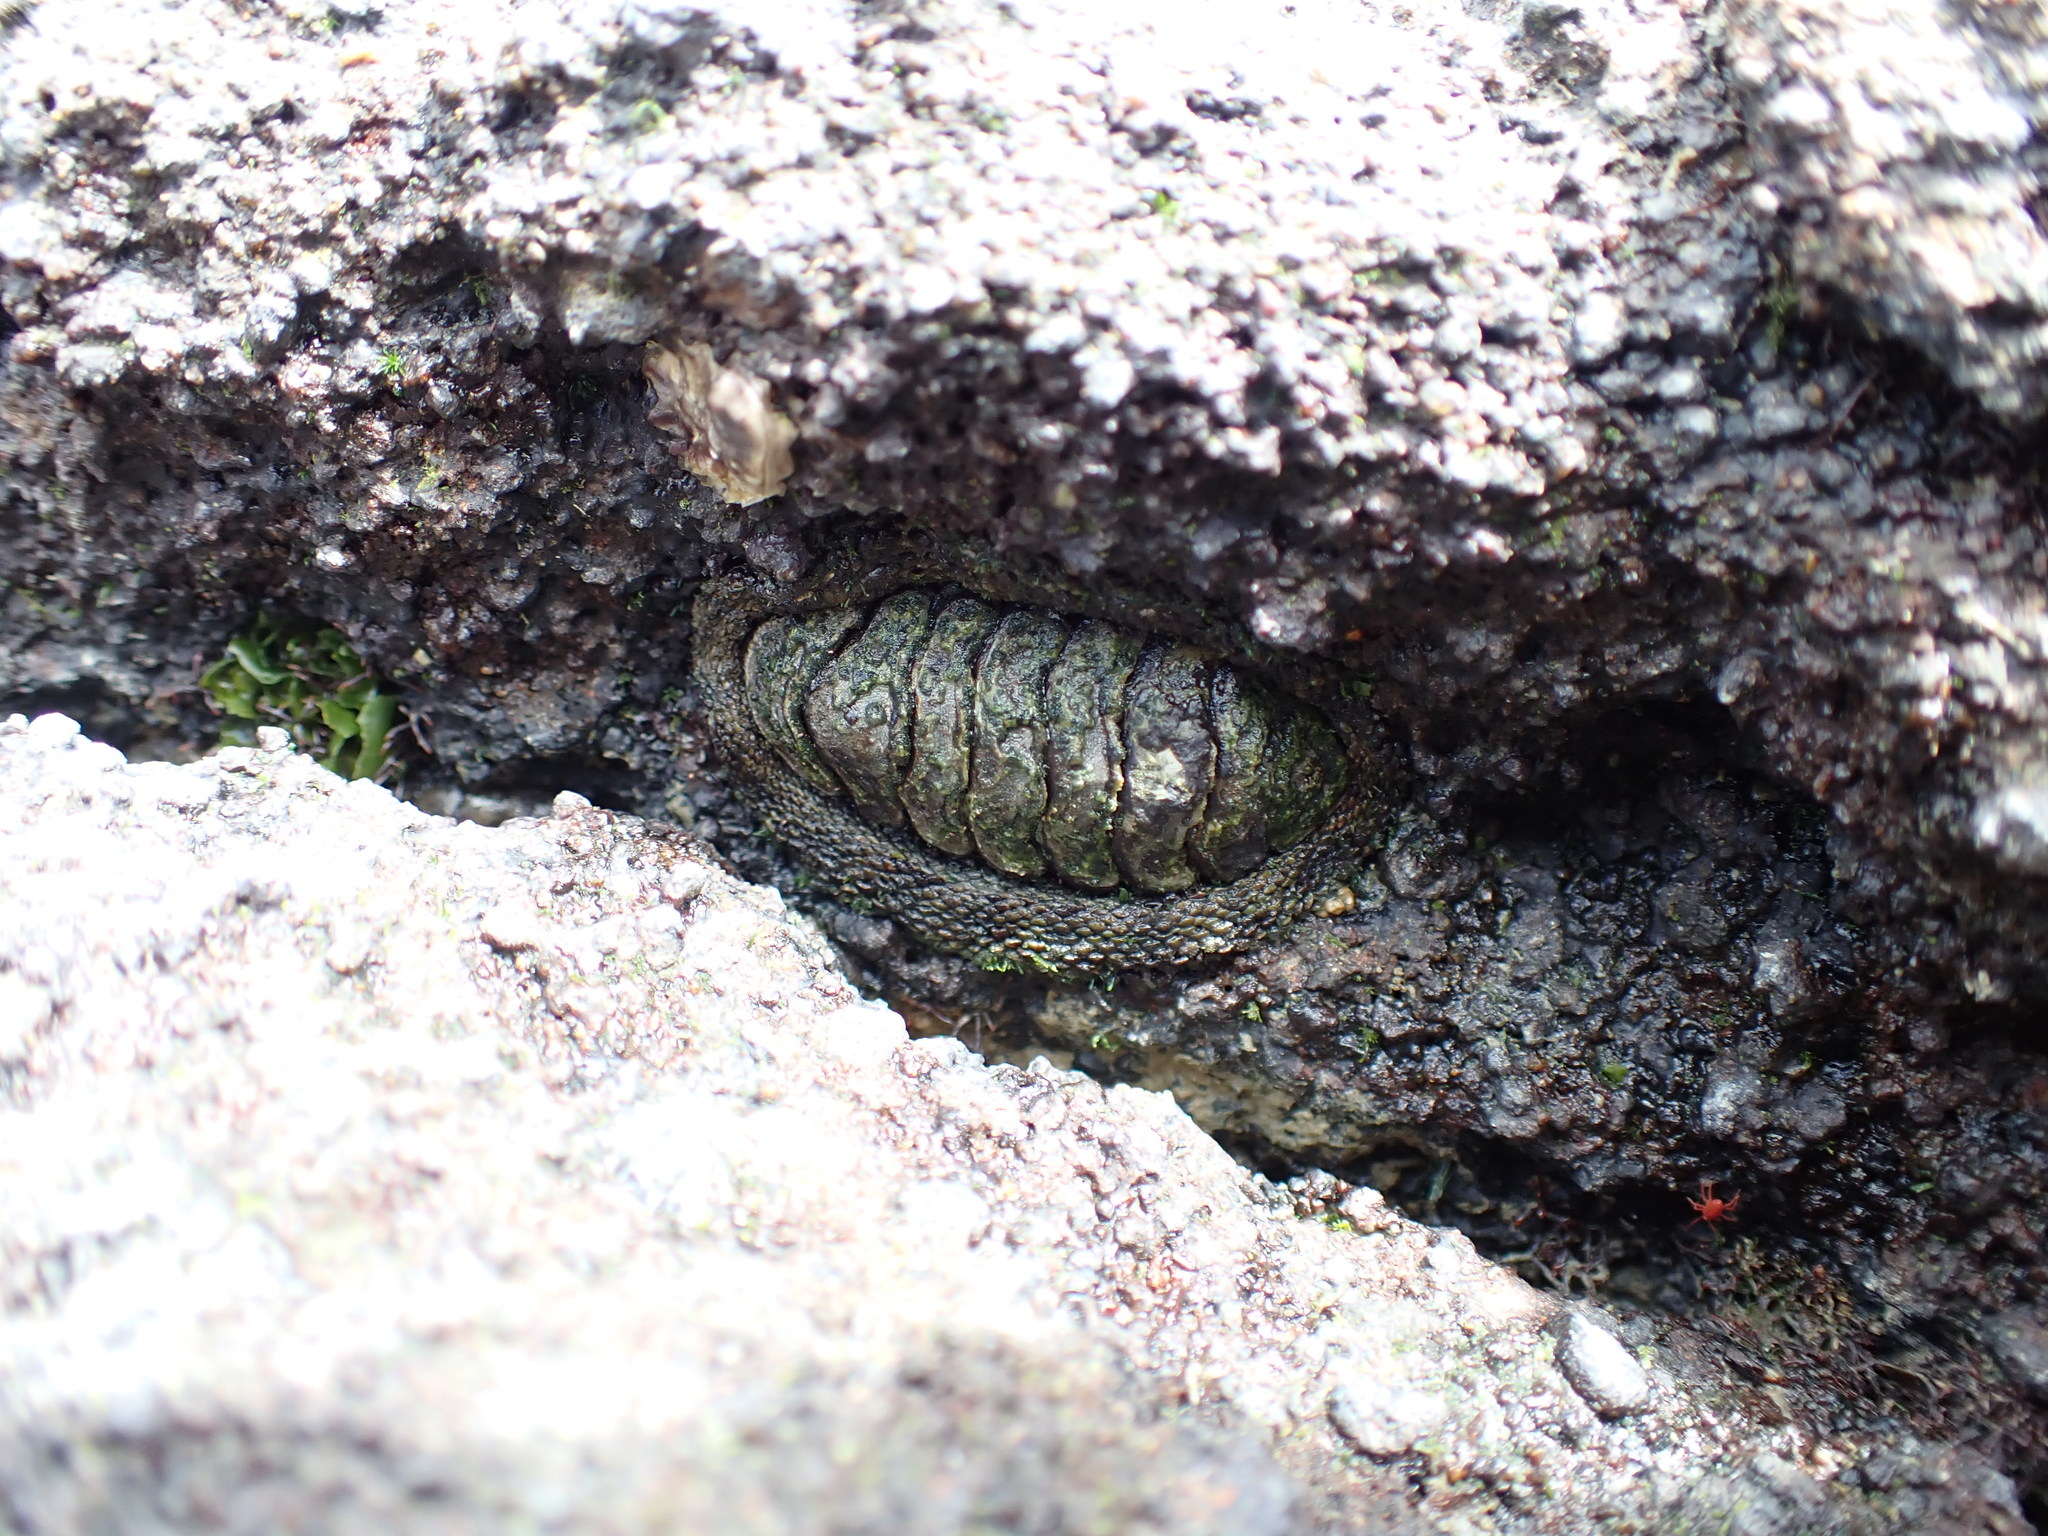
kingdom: Animalia
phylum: Mollusca
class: Polyplacophora
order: Chitonida
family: Chitonidae
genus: Sypharochiton
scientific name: Sypharochiton pelliserpentis
